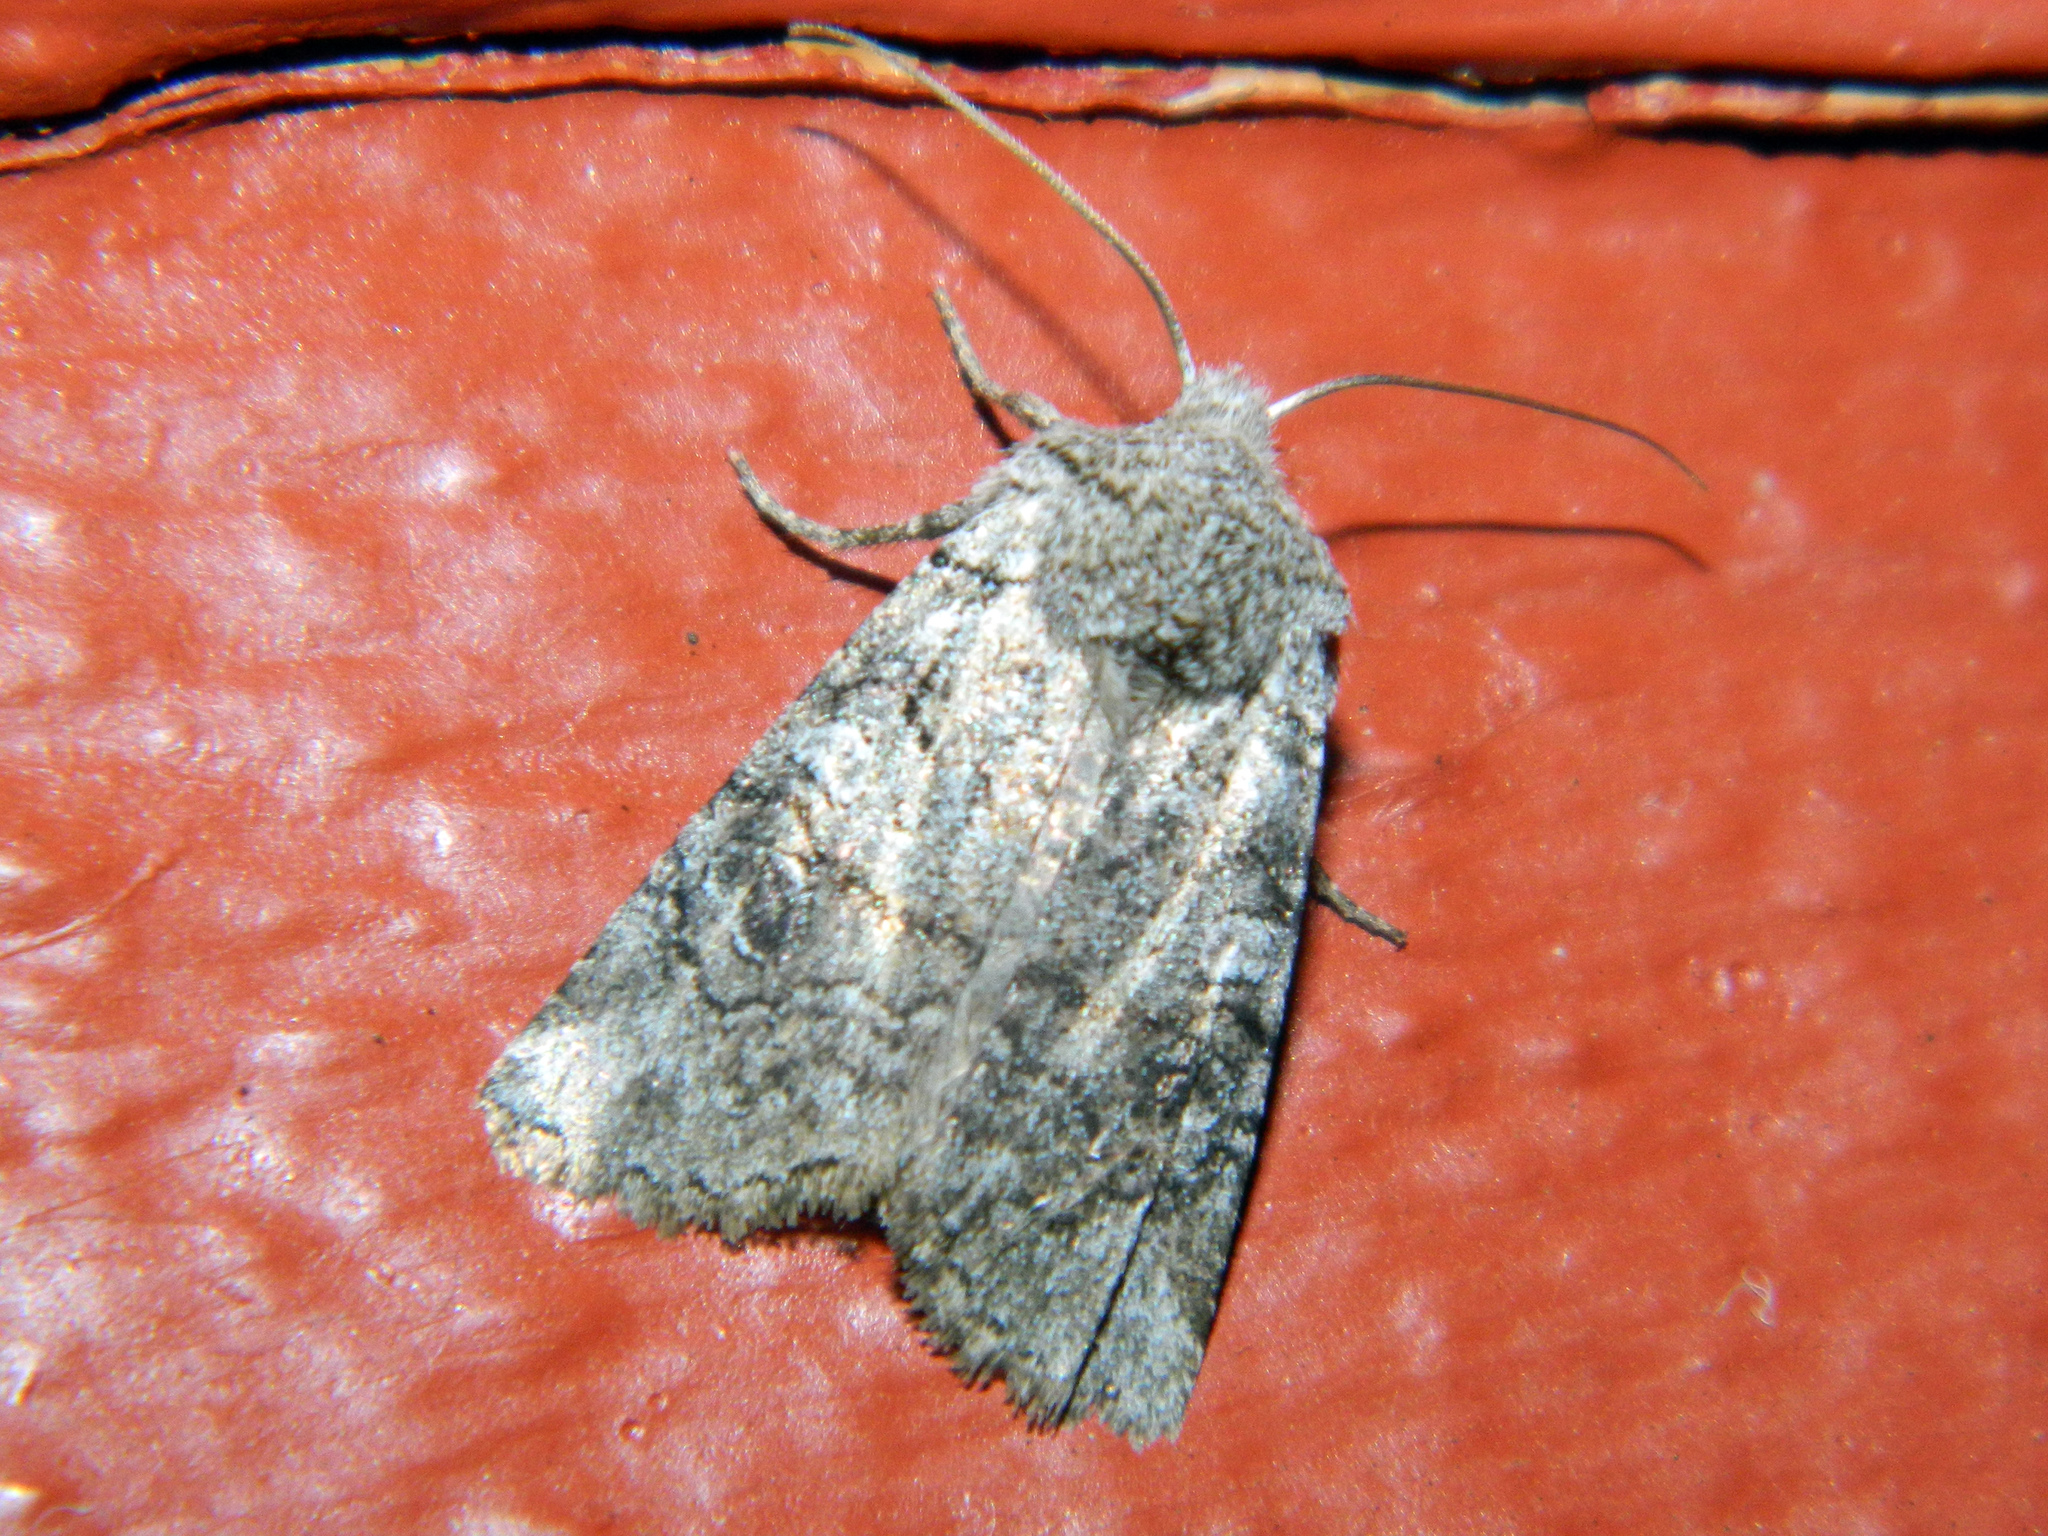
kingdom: Animalia
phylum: Arthropoda
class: Insecta
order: Lepidoptera
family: Noctuidae
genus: Litholomia
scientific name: Litholomia napaea
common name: False pinion moth
